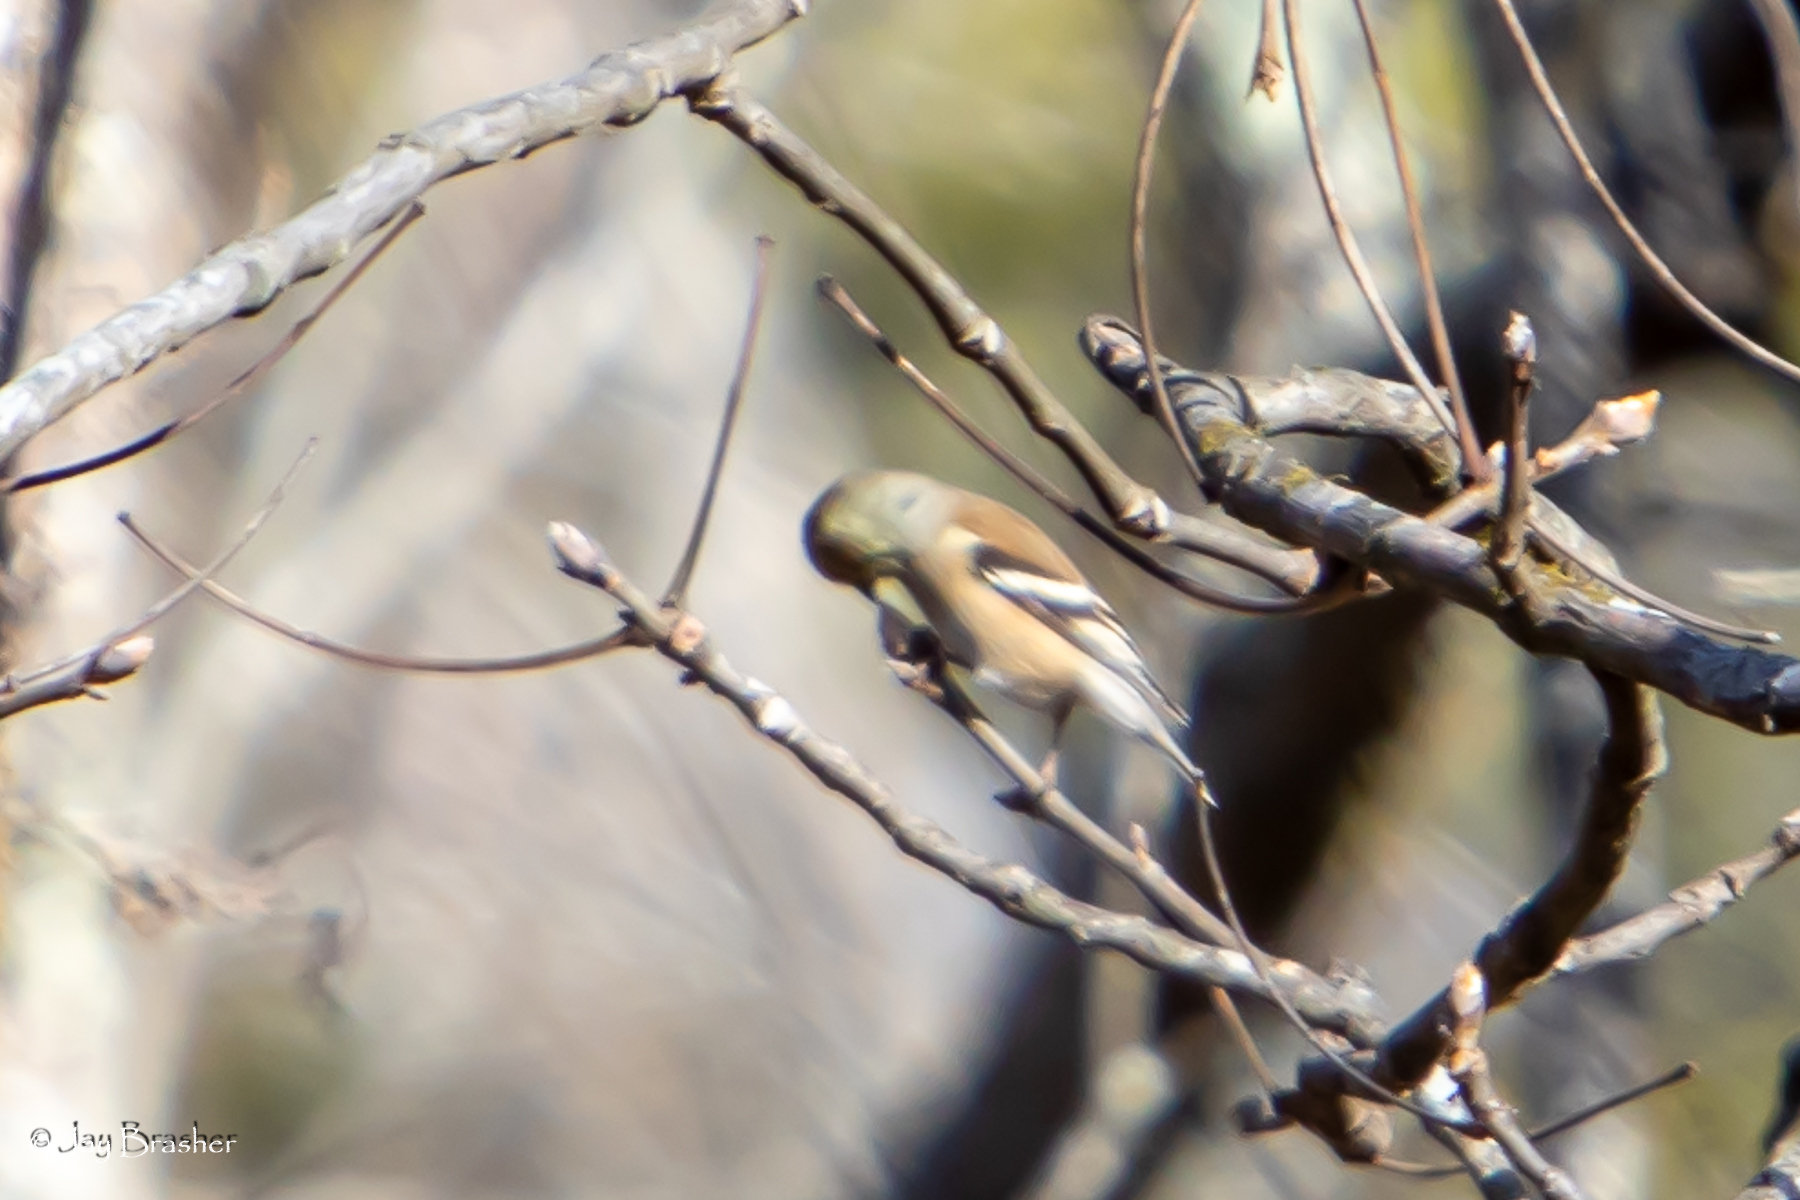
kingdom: Animalia
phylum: Chordata
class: Aves
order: Passeriformes
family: Fringillidae
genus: Spinus
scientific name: Spinus tristis
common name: American goldfinch
